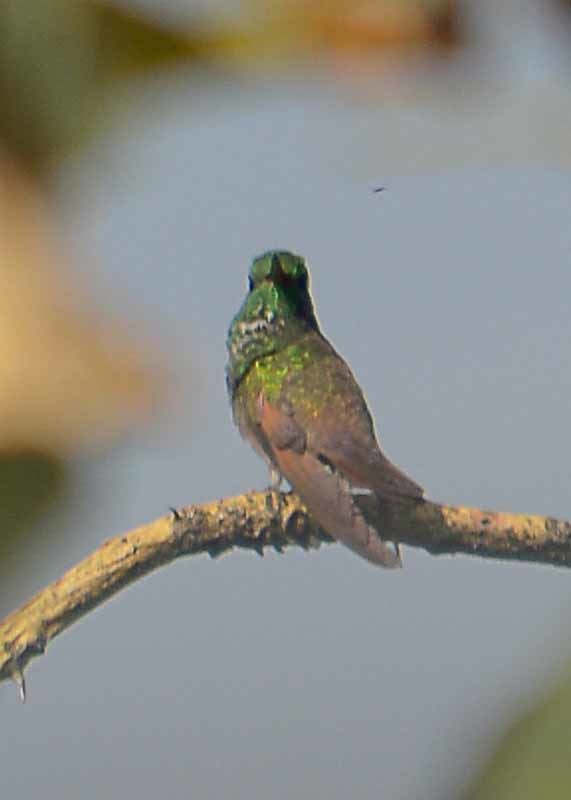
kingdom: Animalia
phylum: Chordata
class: Aves
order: Apodiformes
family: Trochilidae
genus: Saucerottia
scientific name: Saucerottia beryllina
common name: Berylline hummingbird
